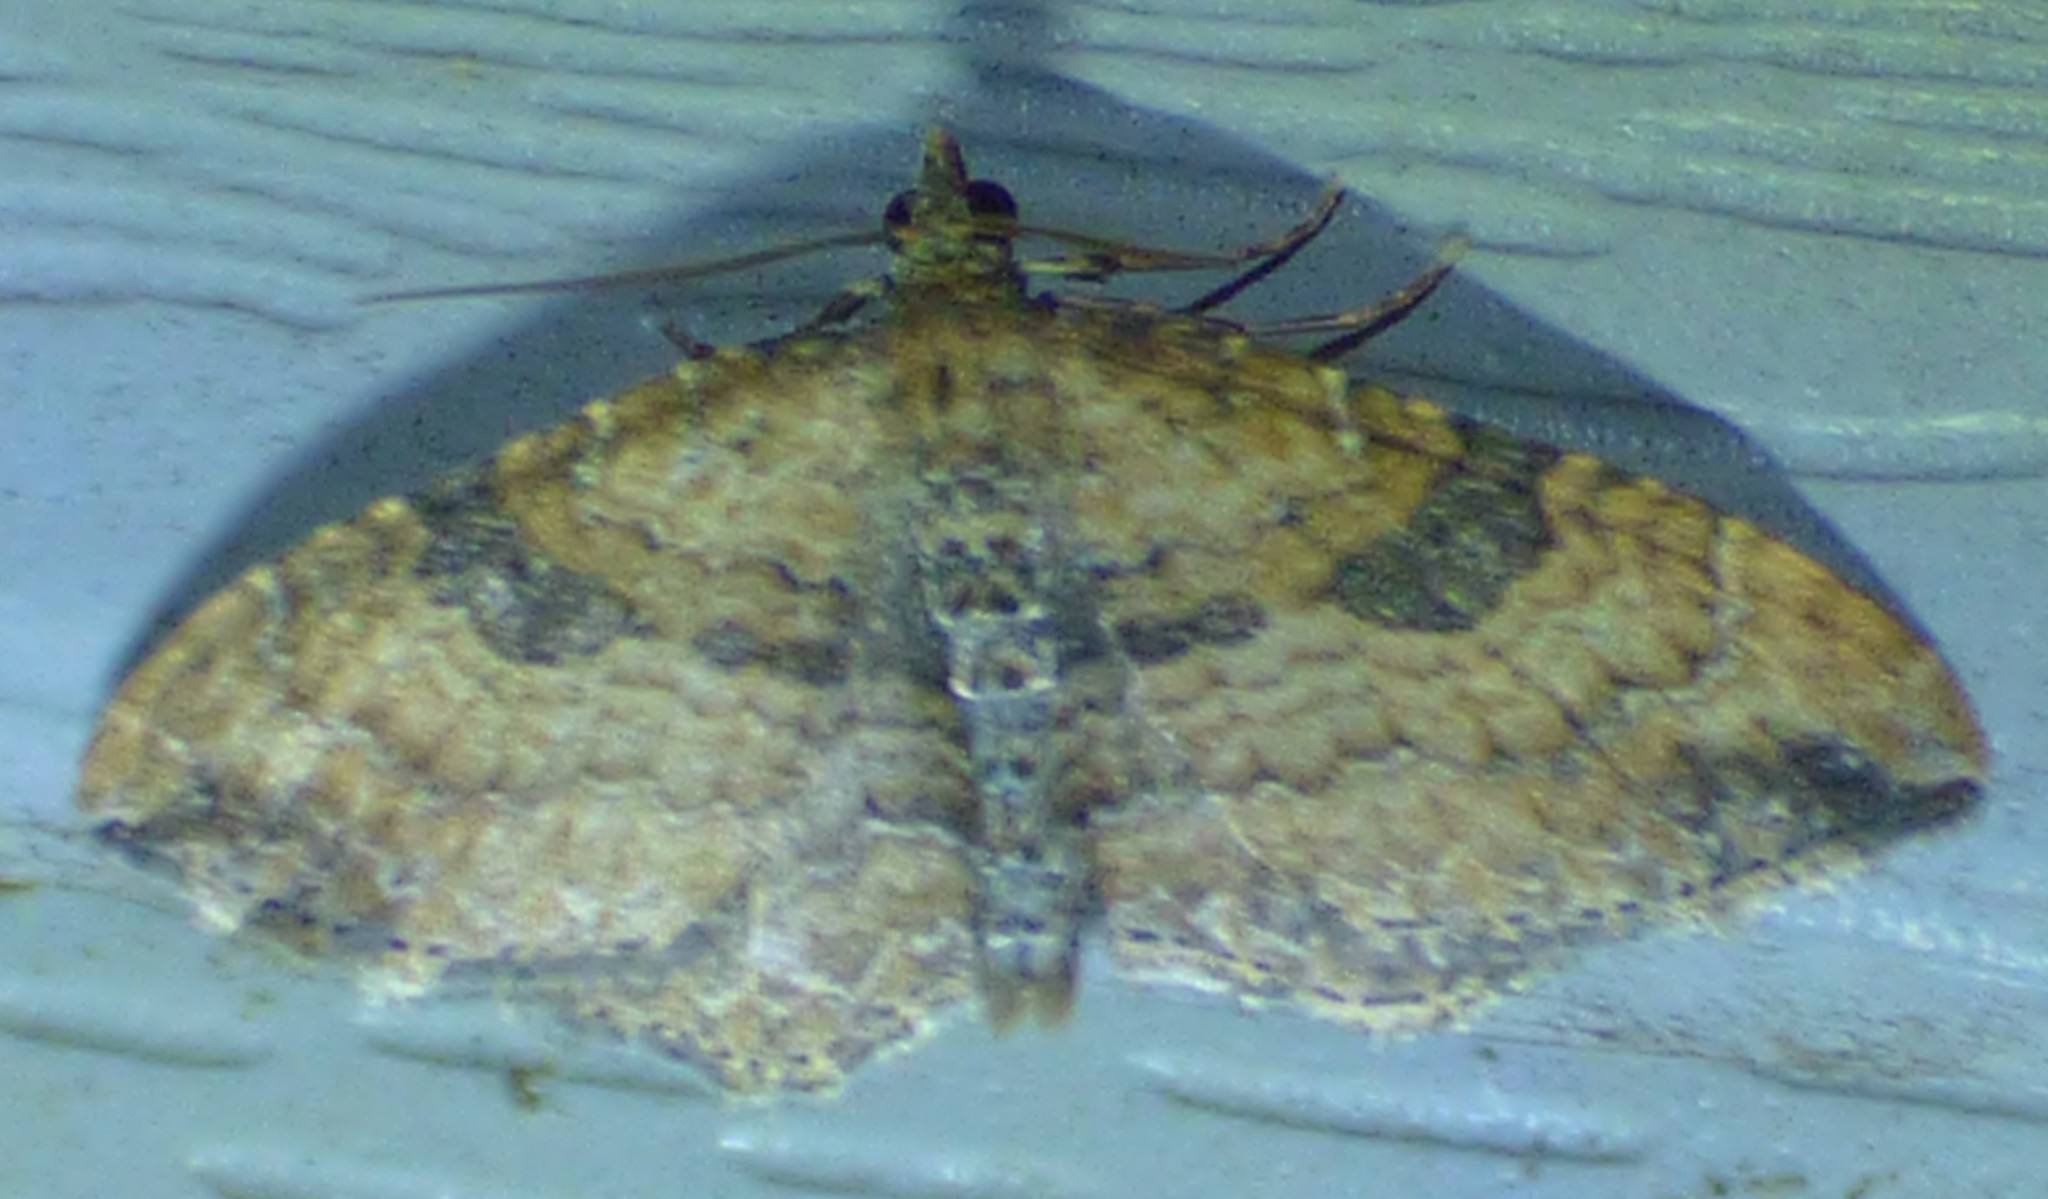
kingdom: Animalia
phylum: Arthropoda
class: Insecta
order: Lepidoptera
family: Geometridae
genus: Orthonama
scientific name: Orthonama obstipata
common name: The gem
